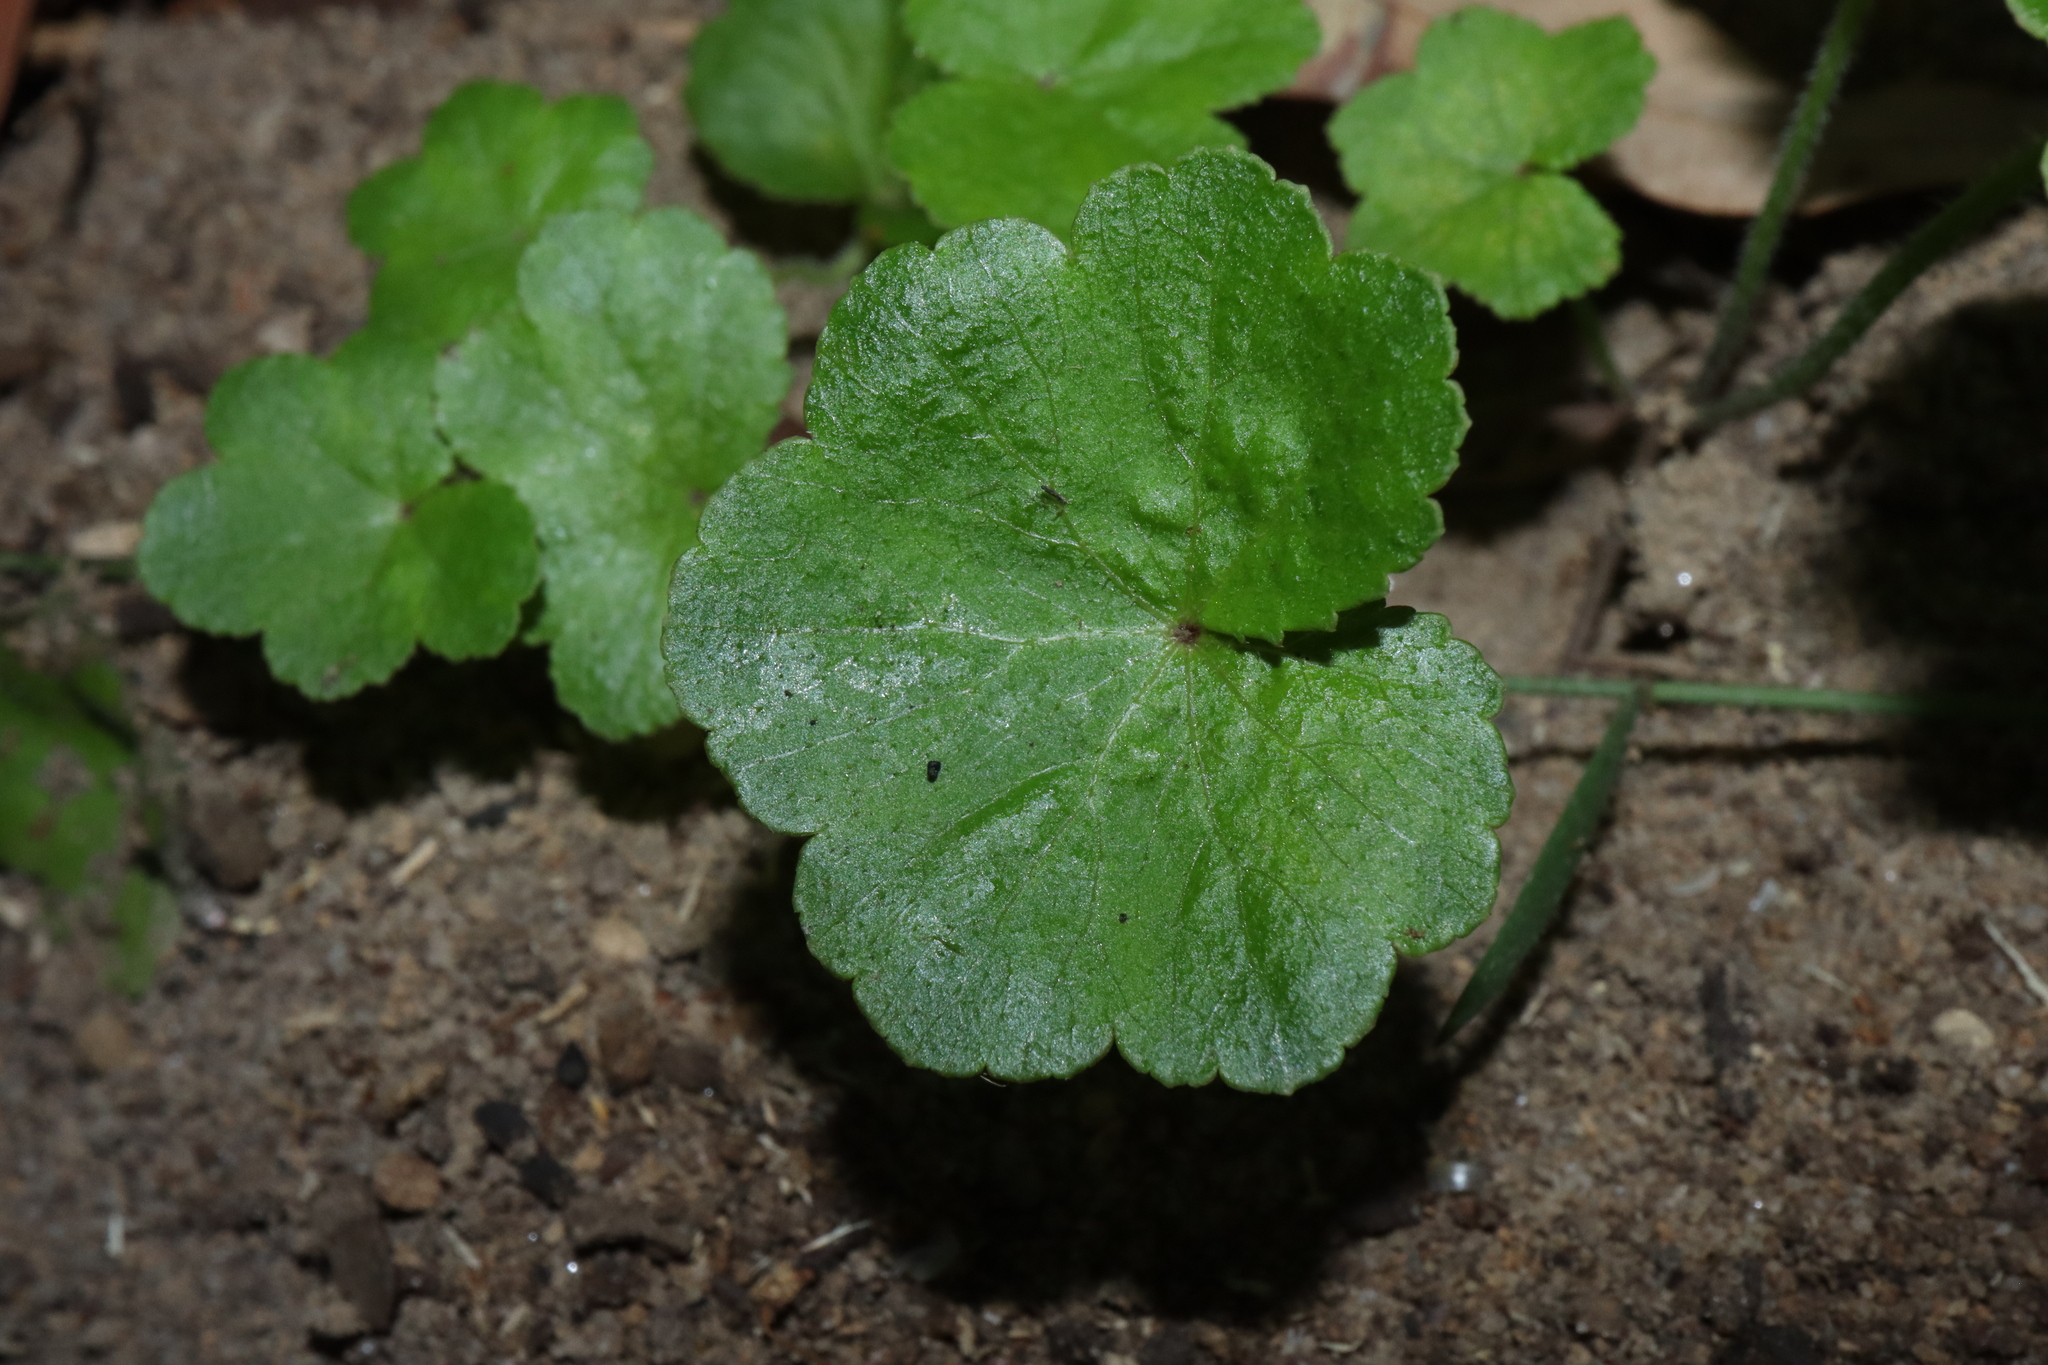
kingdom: Plantae
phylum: Tracheophyta
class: Magnoliopsida
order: Apiales
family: Araliaceae
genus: Hydrocotyle
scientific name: Hydrocotyle hirta
